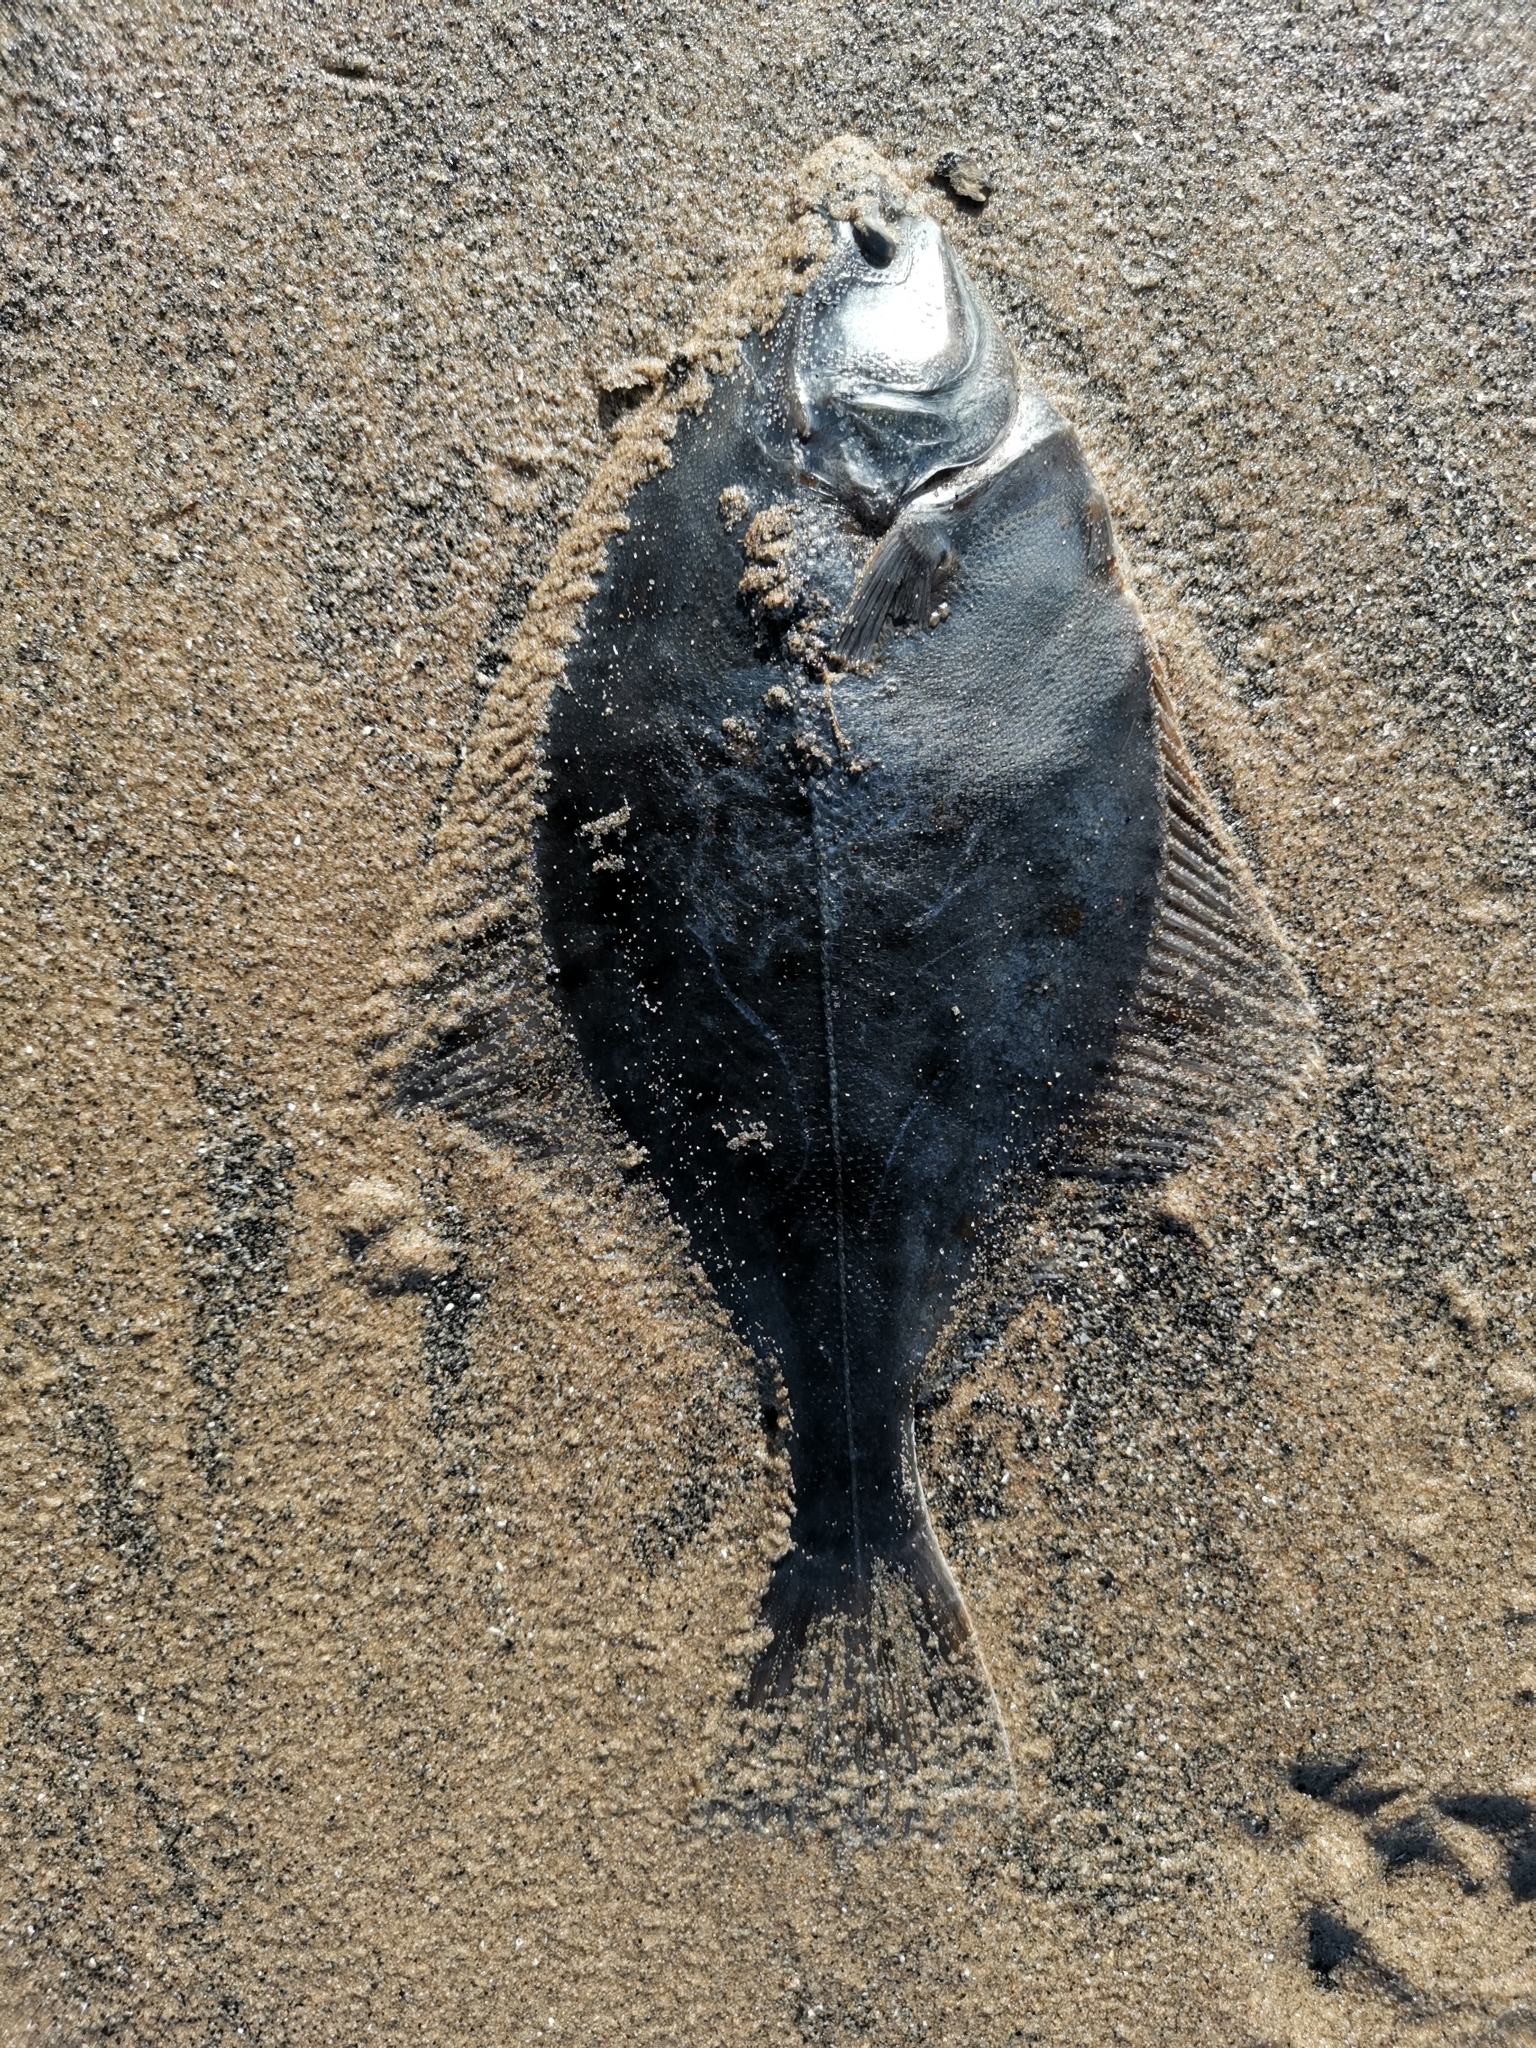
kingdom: Animalia
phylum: Chordata
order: Pleuronectiformes
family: Pleuronectidae
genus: Platichthys
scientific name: Platichthys flesus
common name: European flounder
